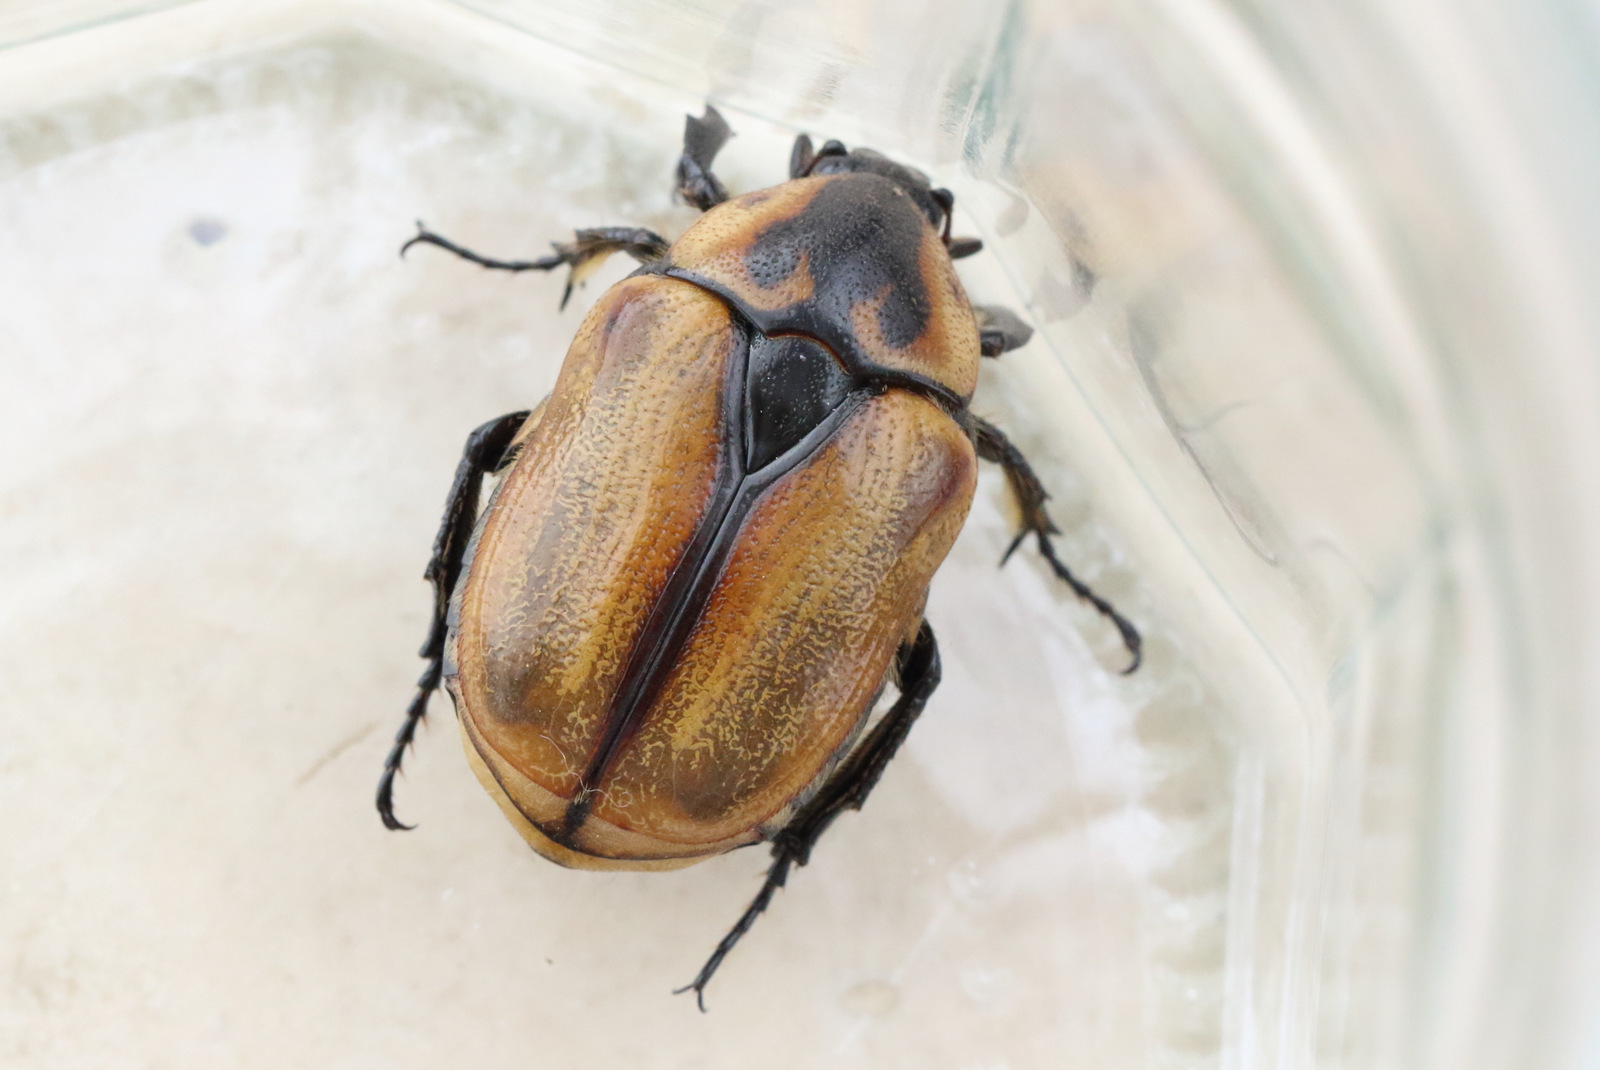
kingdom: Animalia
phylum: Arthropoda
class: Insecta
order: Coleoptera
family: Scarabaeidae
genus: Chondropyga
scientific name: Chondropyga dorsalis
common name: Cowboy beetle
